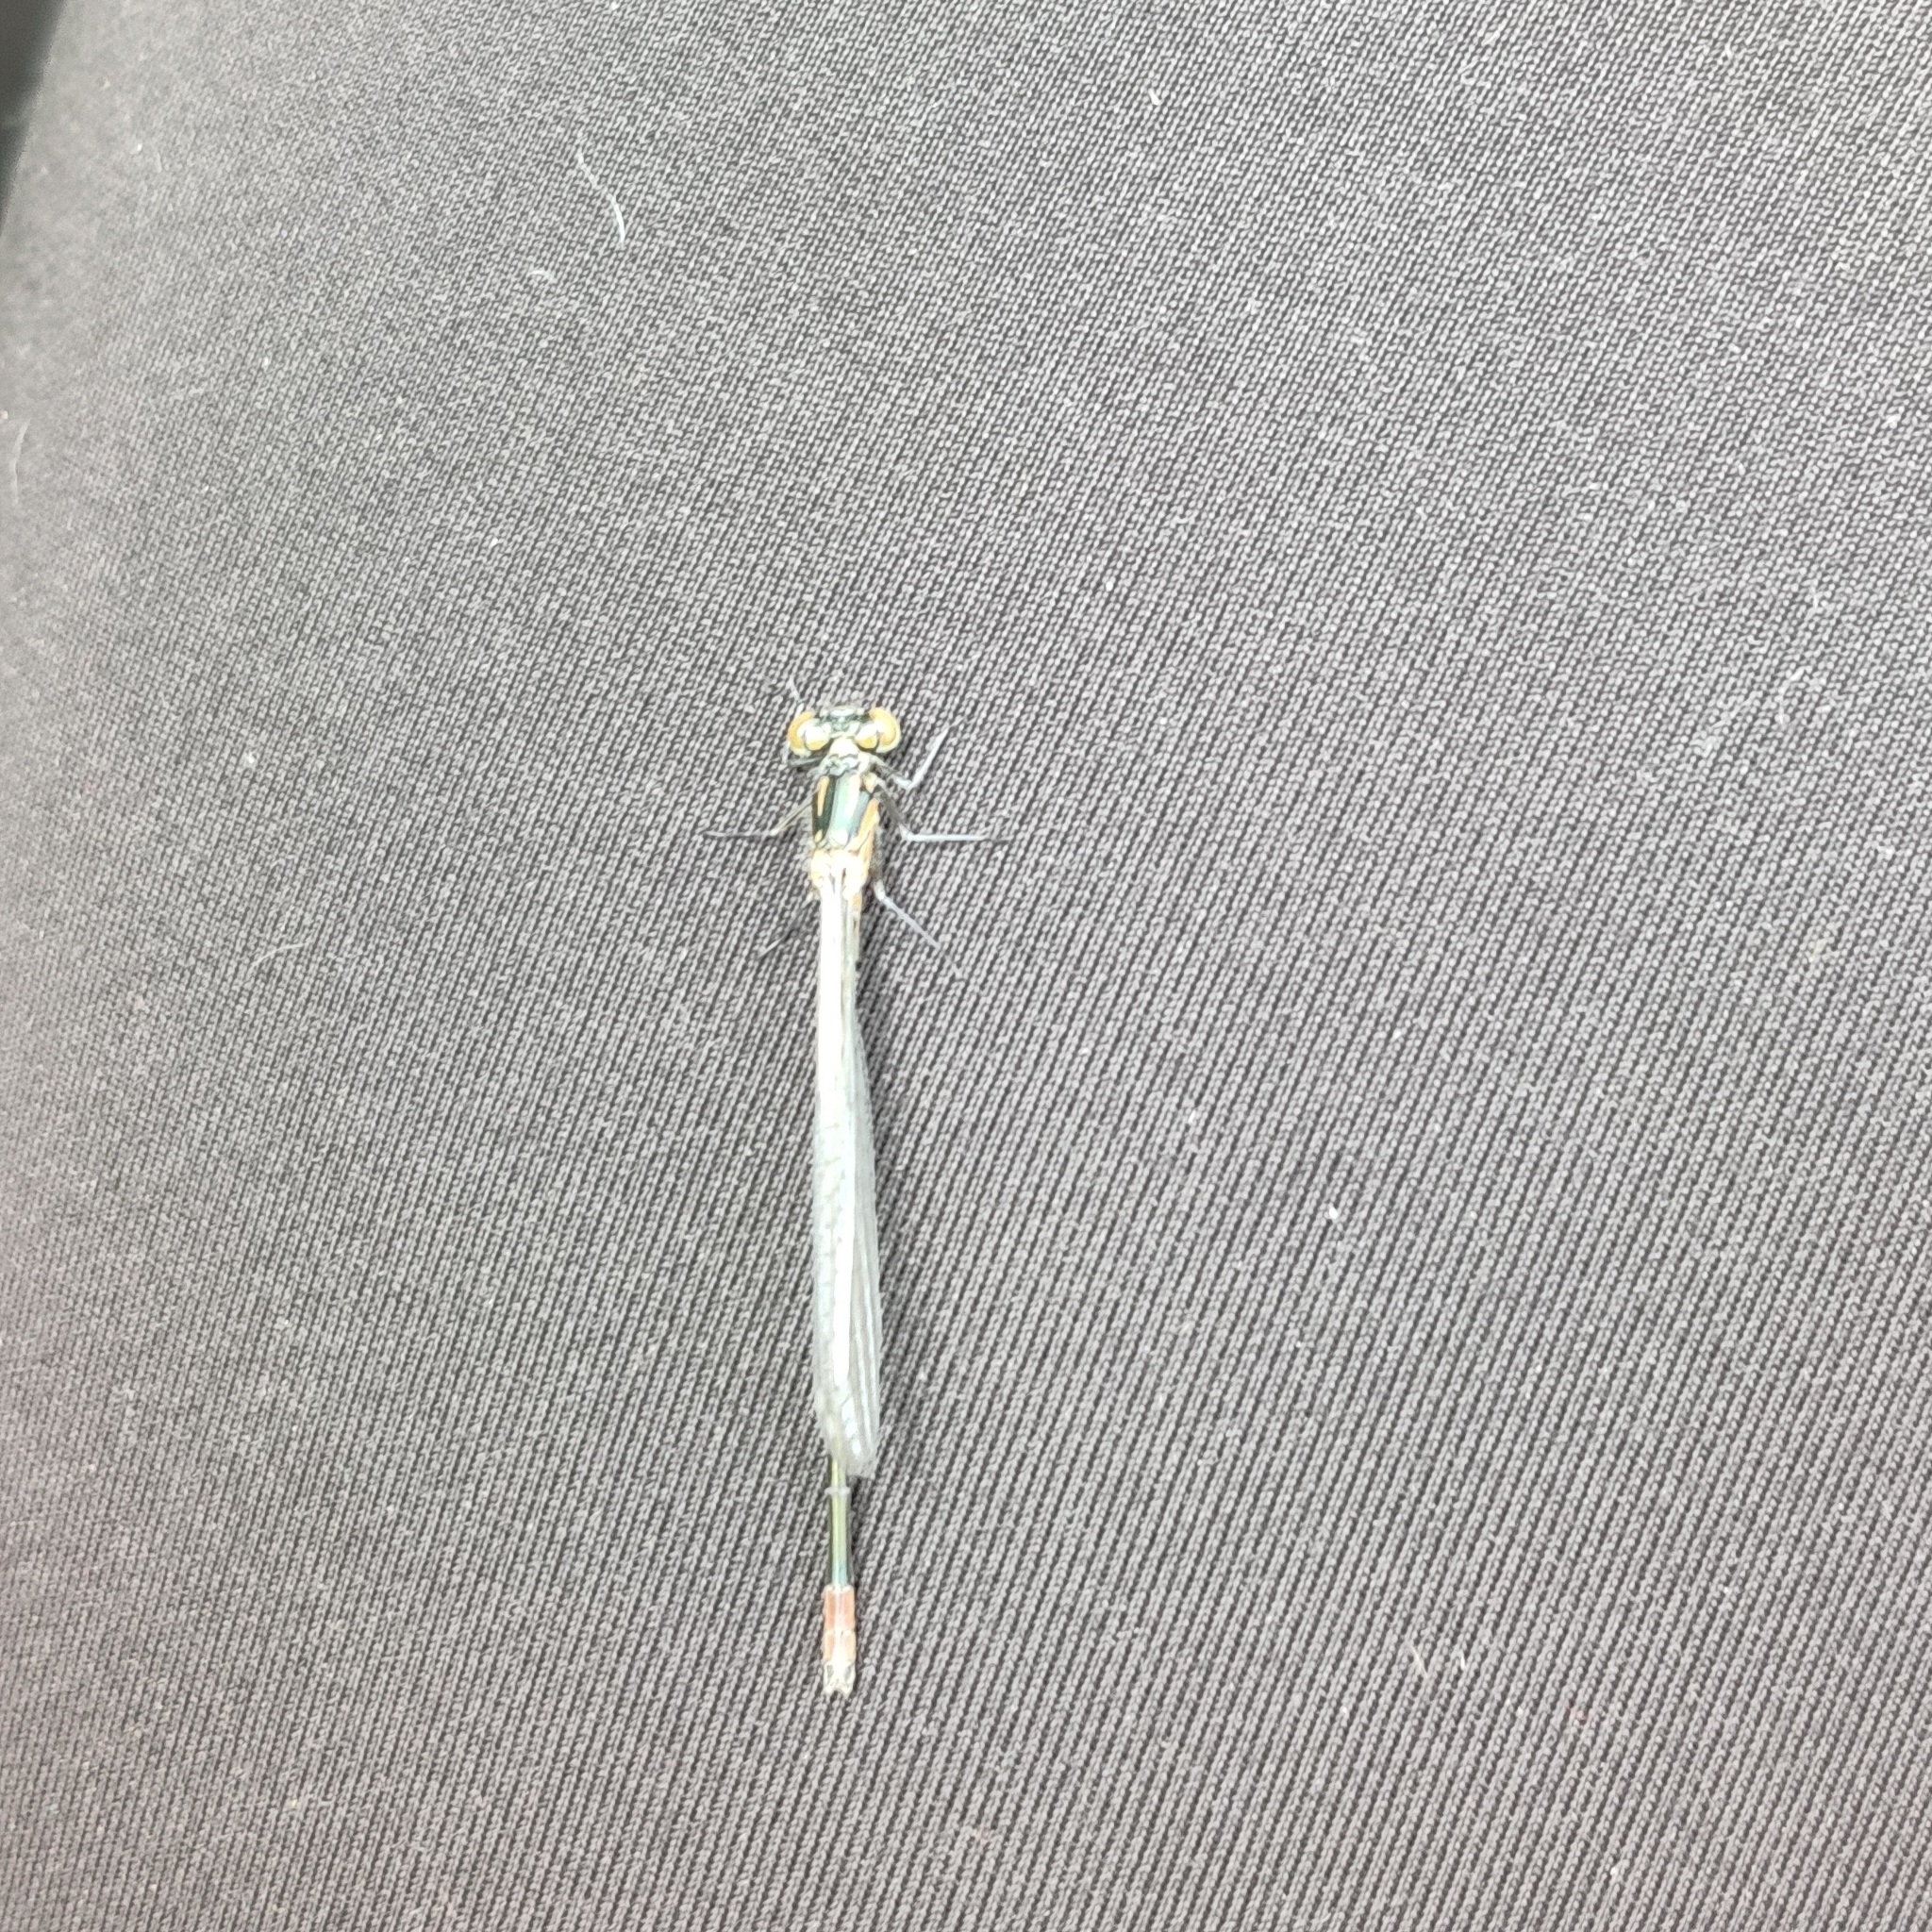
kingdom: Animalia
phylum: Arthropoda
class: Insecta
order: Odonata
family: Coenagrionidae
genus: Coenagrion
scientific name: Coenagrion pulchellum
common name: Variable bluet
